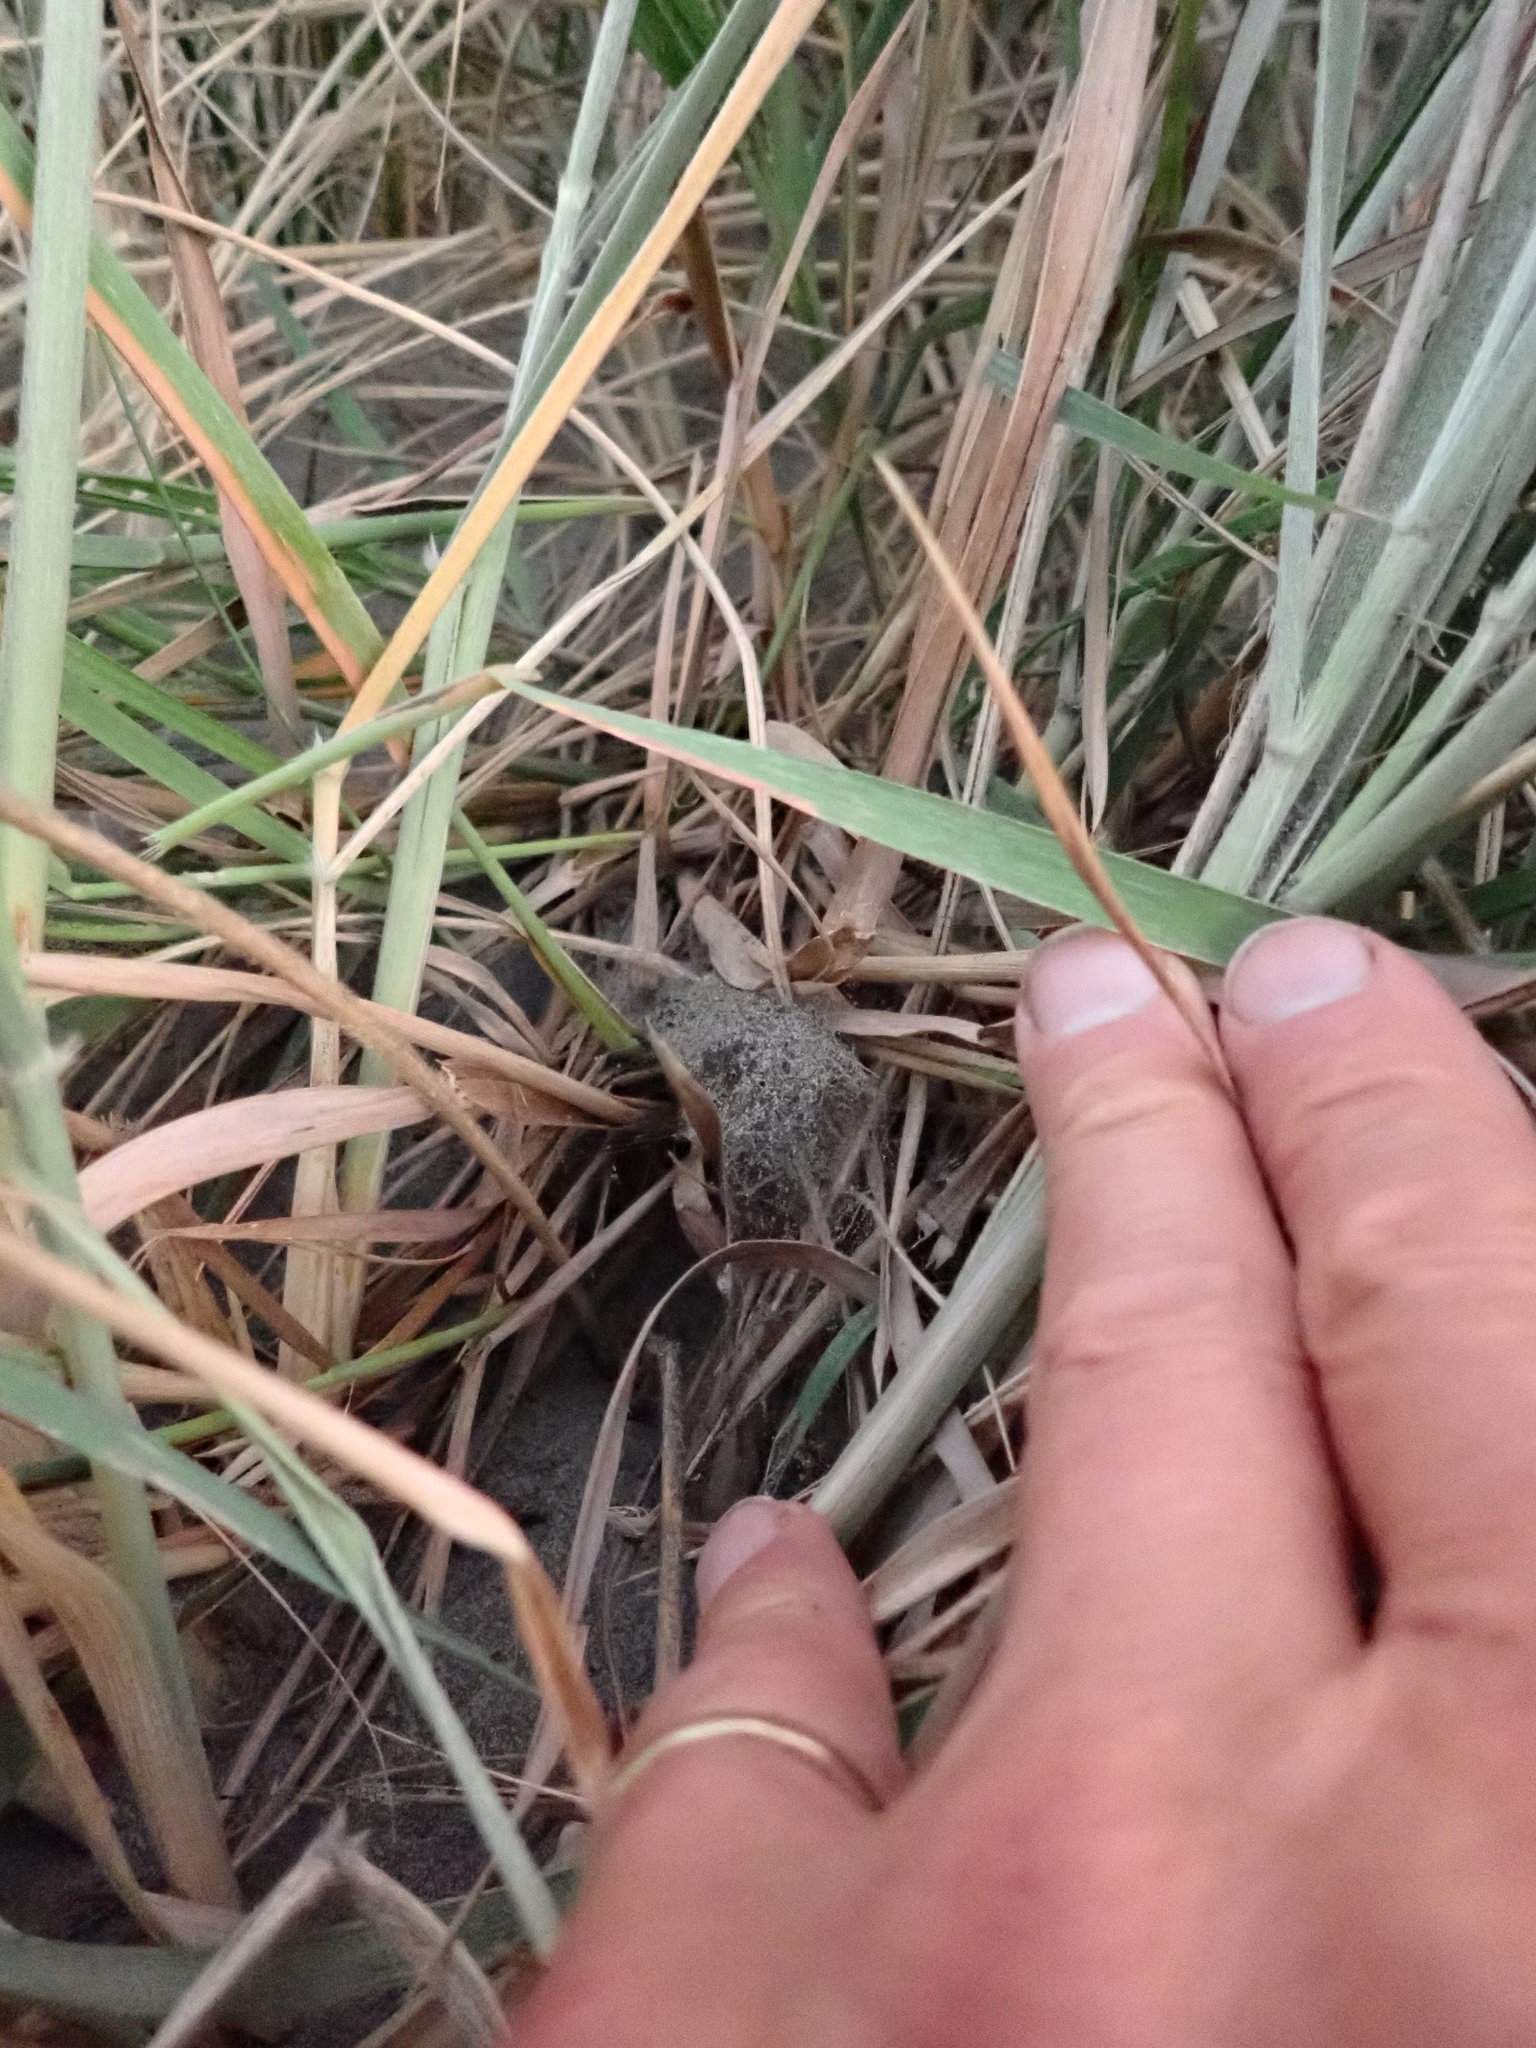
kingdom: Animalia
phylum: Arthropoda
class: Arachnida
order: Araneae
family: Theridiidae
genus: Latrodectus
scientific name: Latrodectus katipo
